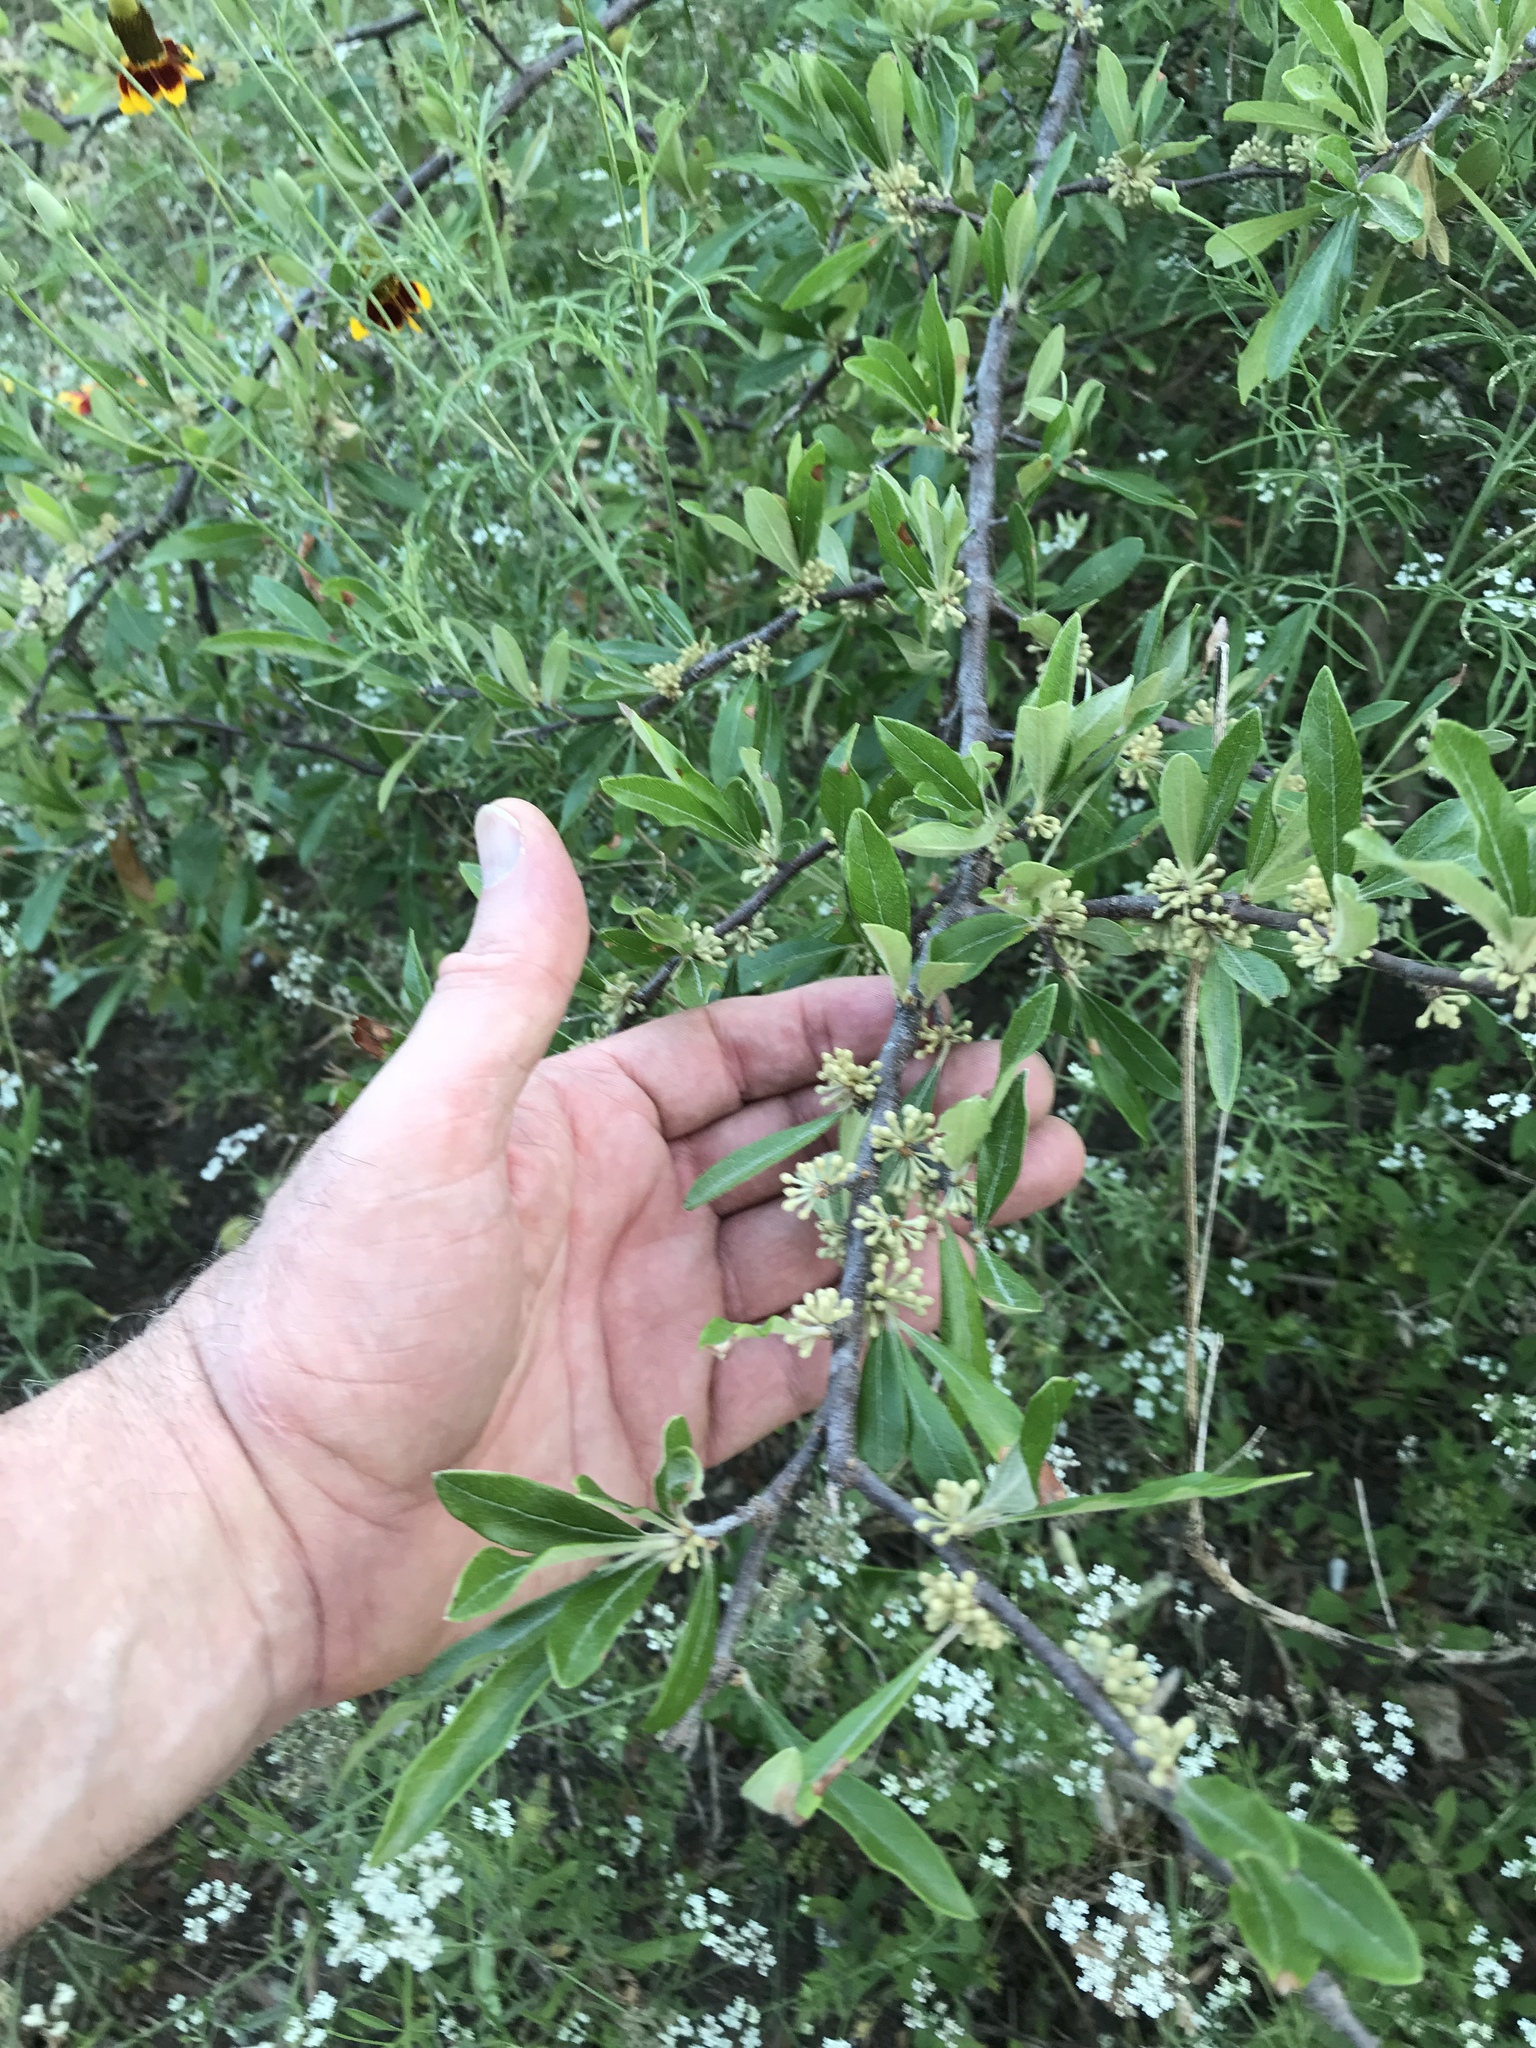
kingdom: Plantae
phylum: Tracheophyta
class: Magnoliopsida
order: Ericales
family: Sapotaceae
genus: Sideroxylon
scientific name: Sideroxylon lanuginosum
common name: Chittamwood
